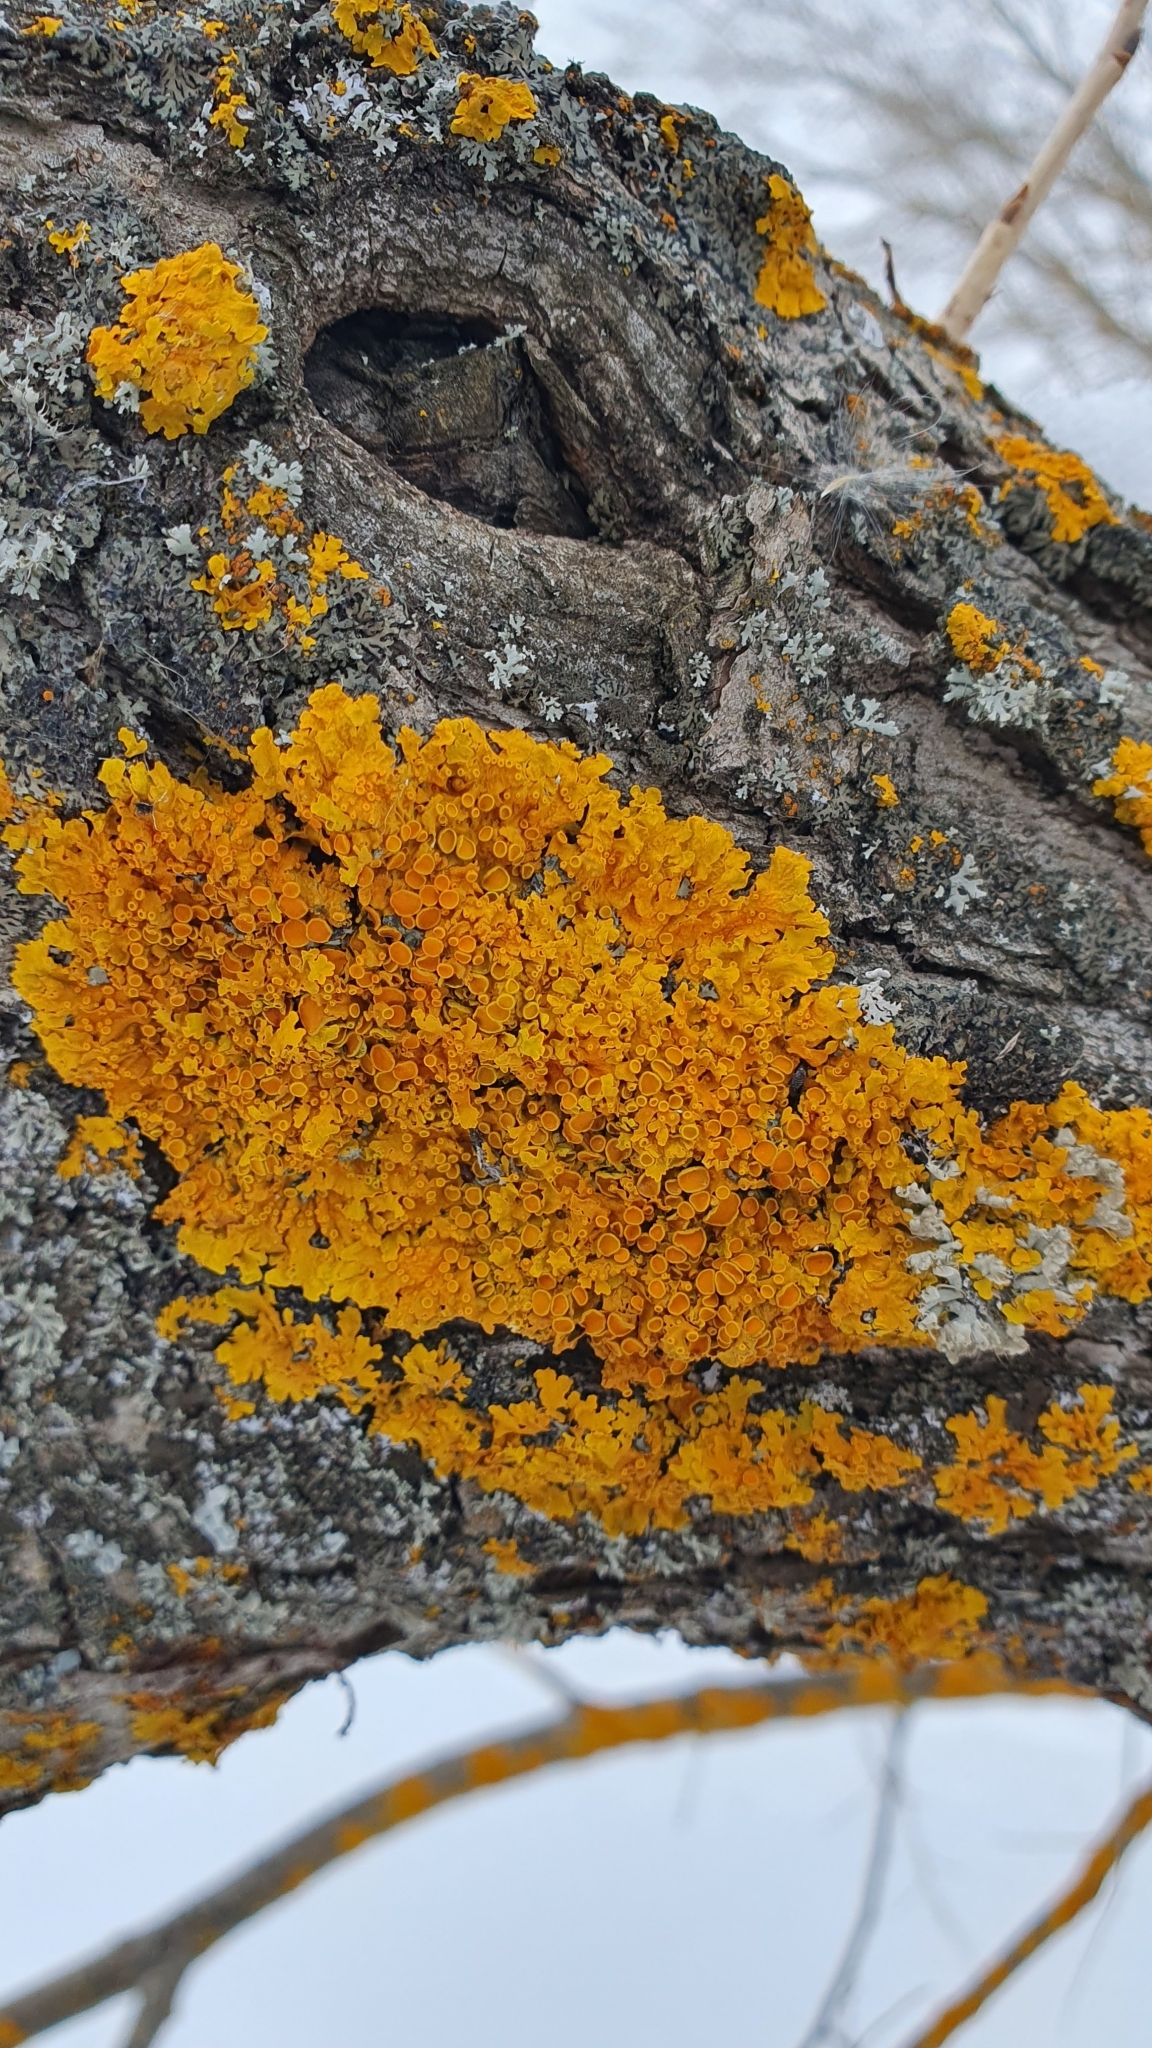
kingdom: Fungi
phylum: Ascomycota
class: Lecanoromycetes
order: Teloschistales
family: Teloschistaceae
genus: Xanthoria
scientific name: Xanthoria parietina
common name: Common orange lichen
